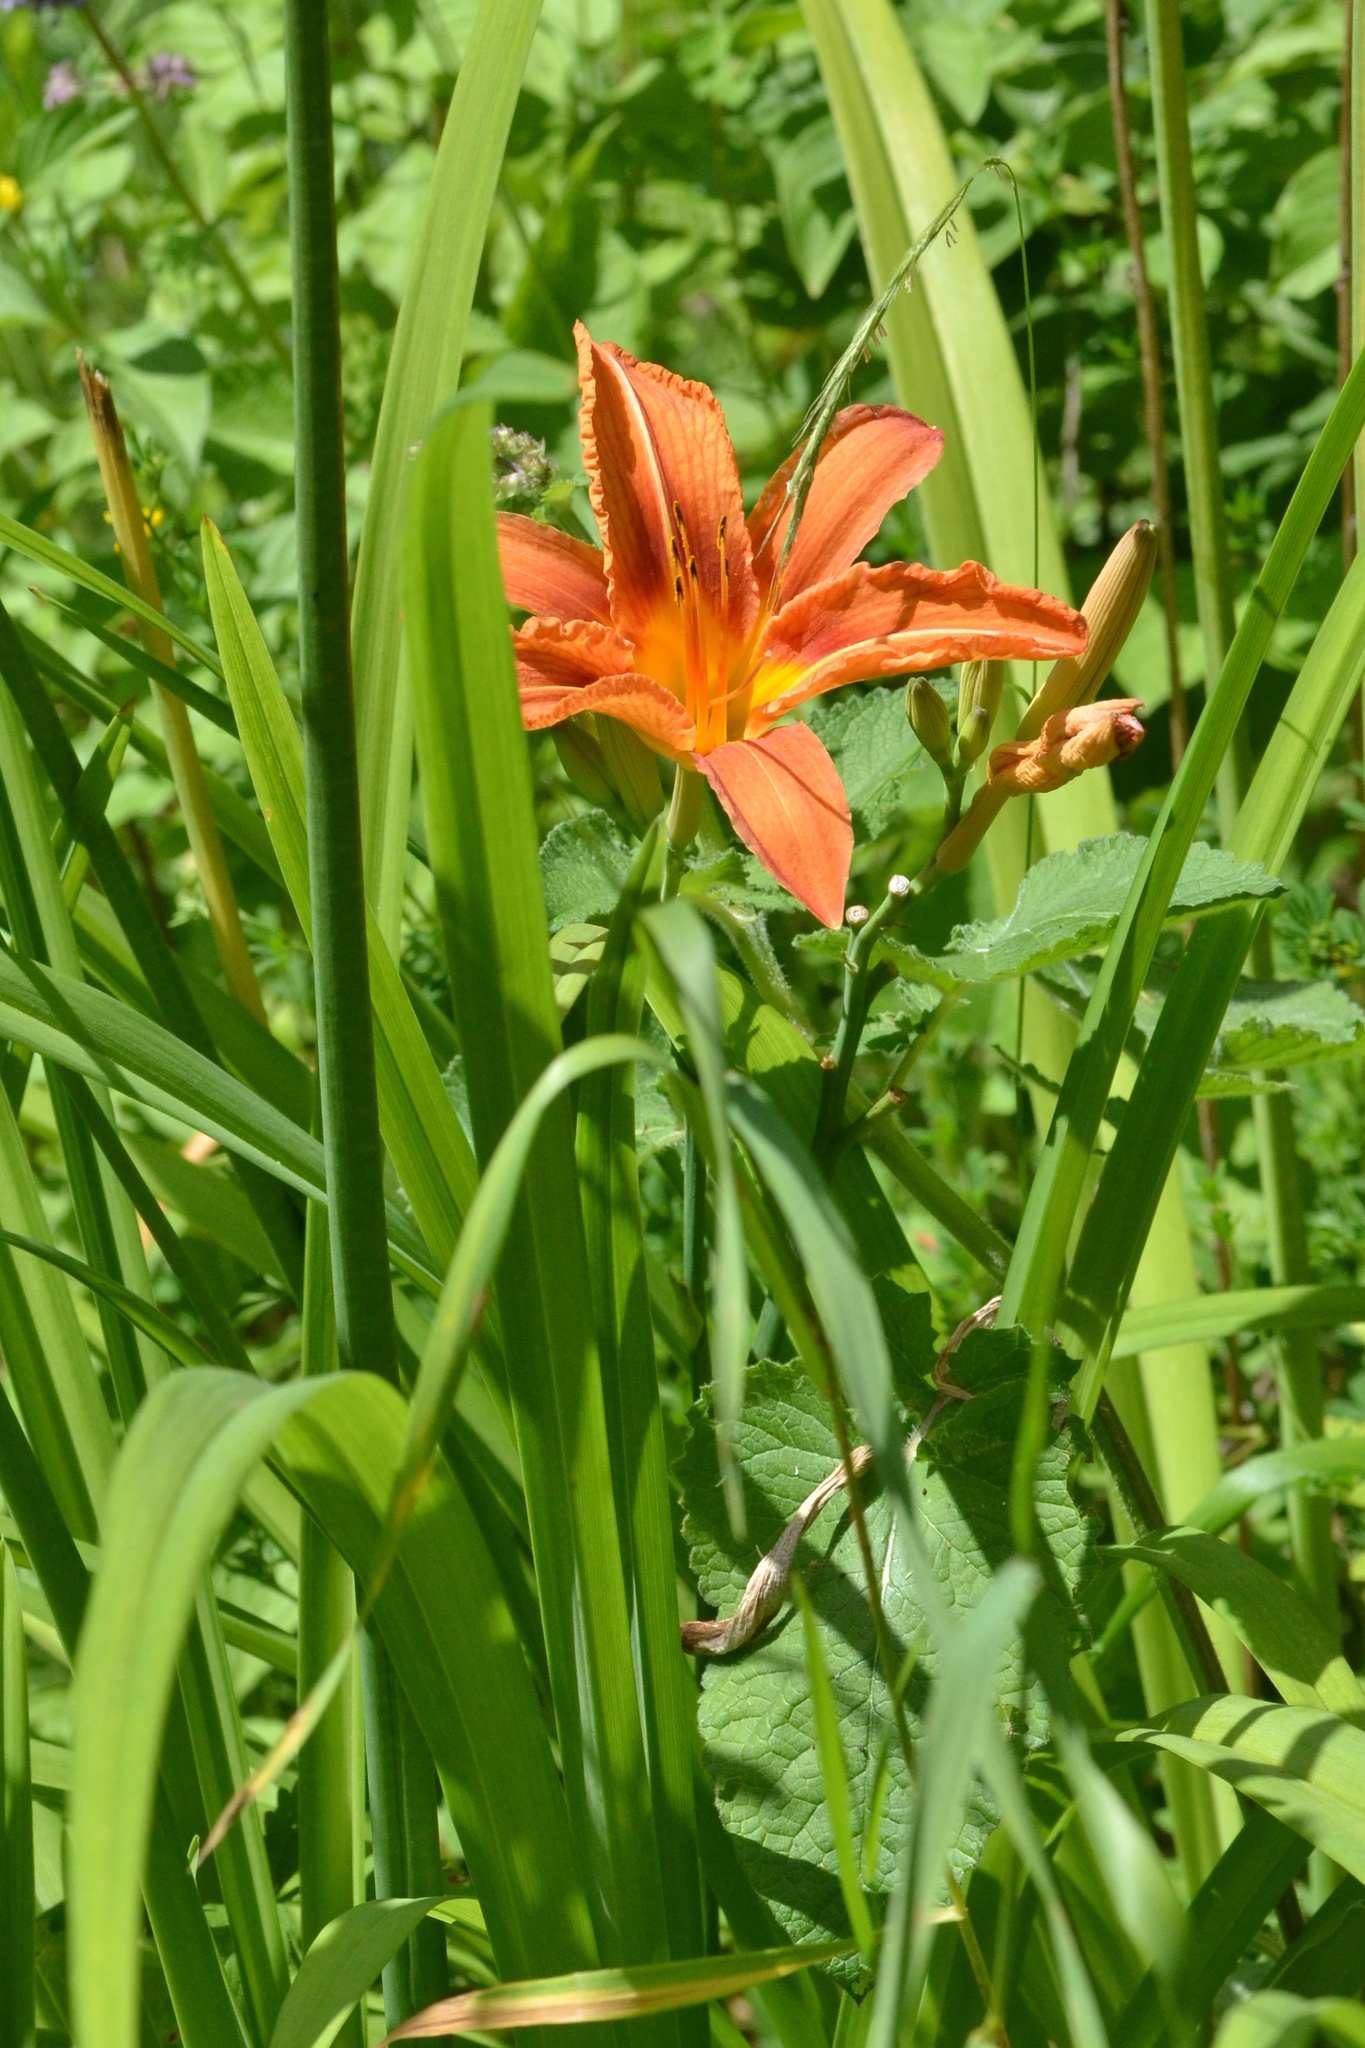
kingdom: Plantae
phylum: Tracheophyta
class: Liliopsida
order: Asparagales
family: Asphodelaceae
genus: Hemerocallis
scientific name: Hemerocallis fulva
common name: Orange day-lily
